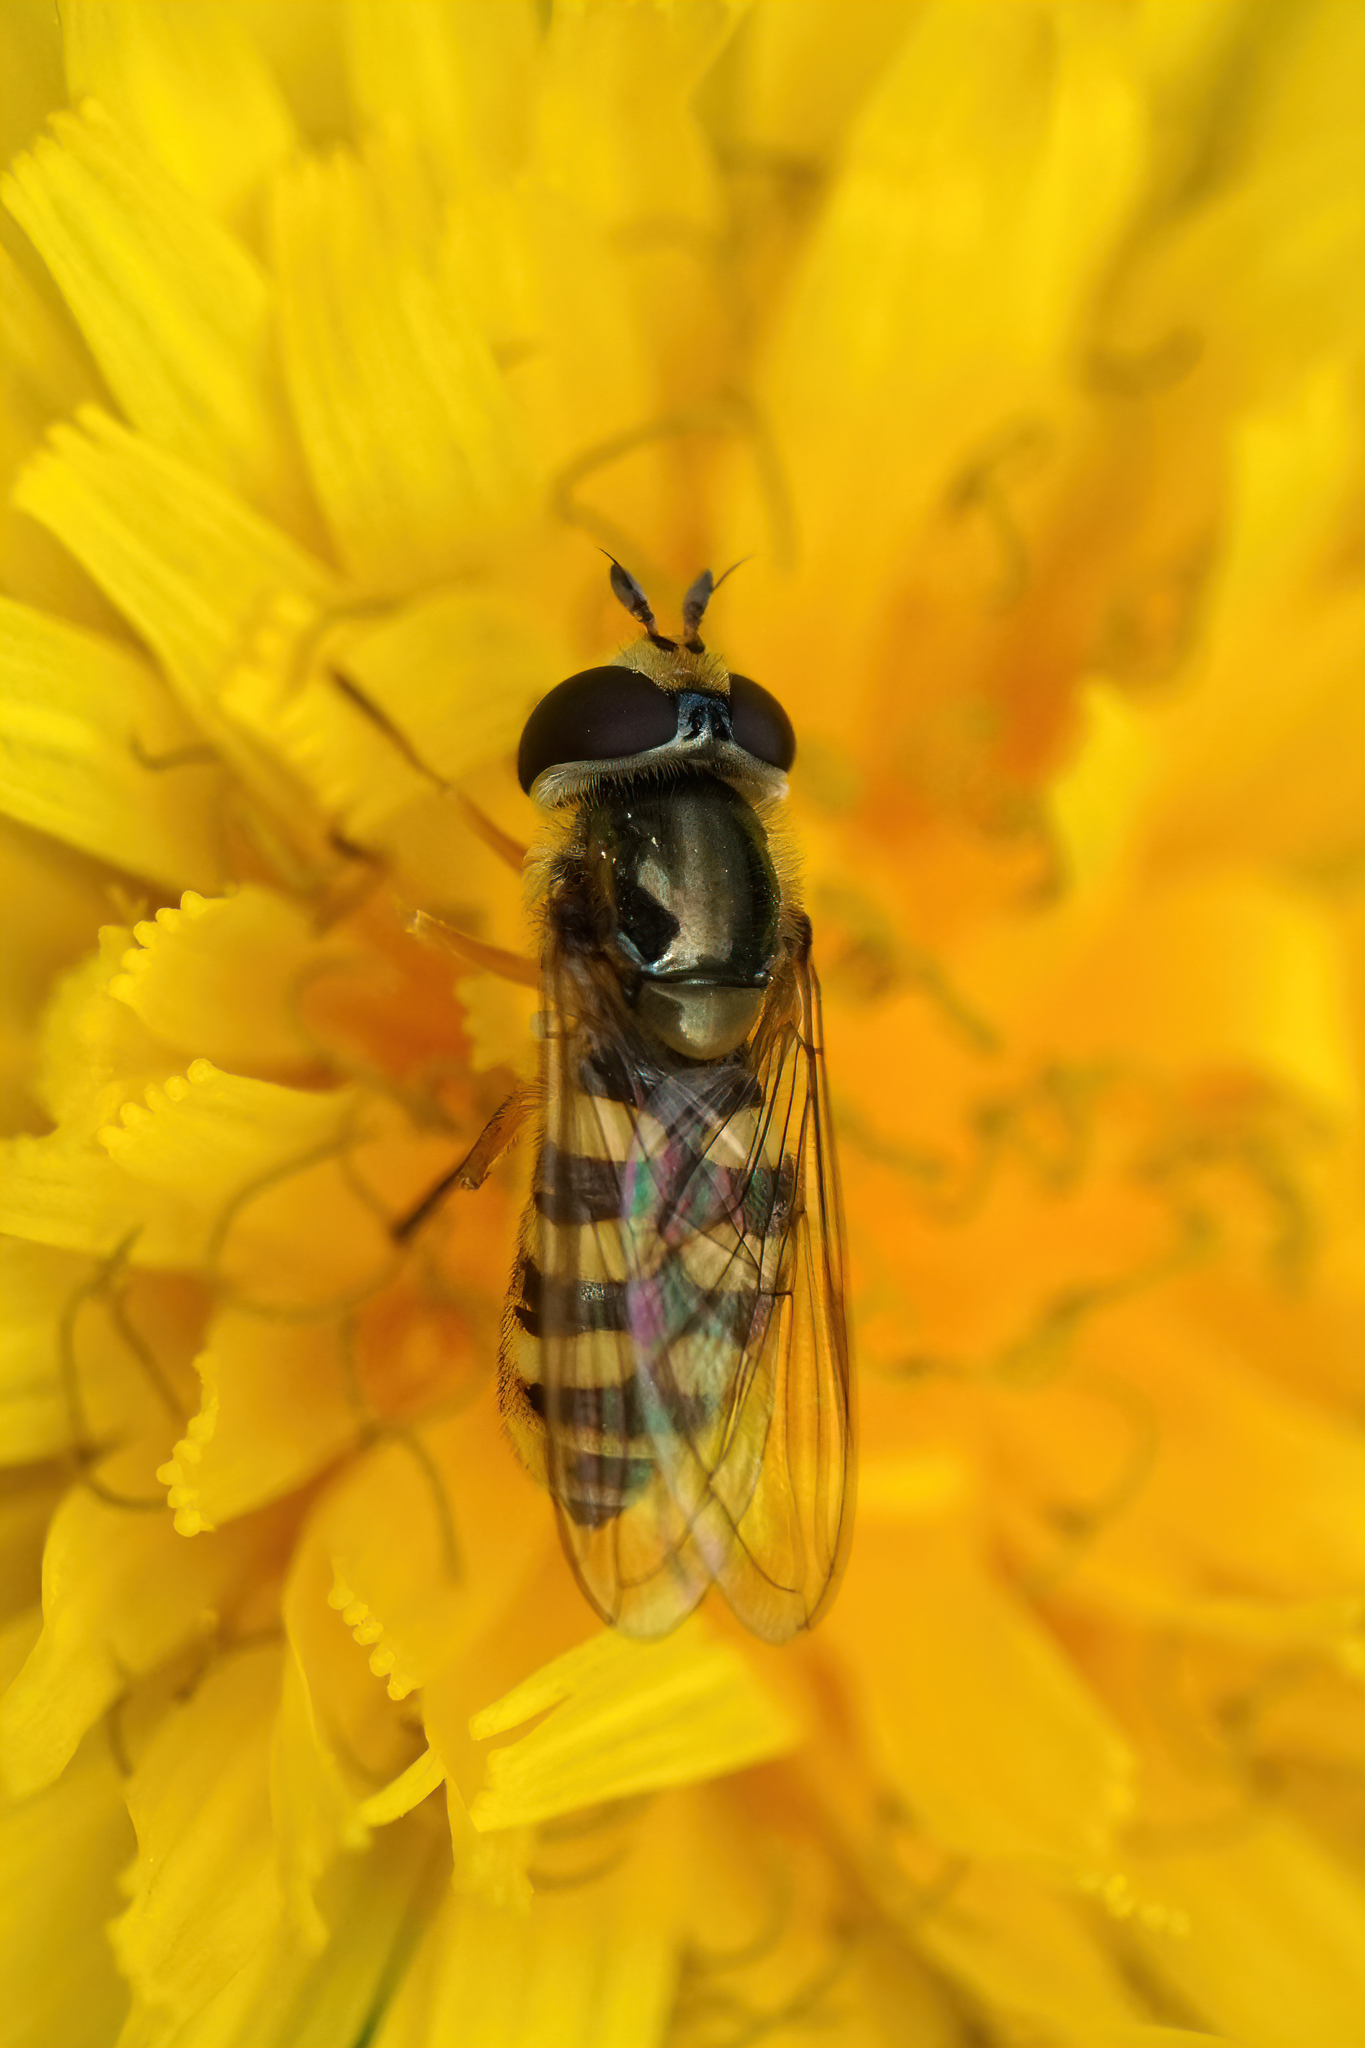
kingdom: Animalia
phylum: Arthropoda
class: Insecta
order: Diptera
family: Syrphidae
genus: Eupeodes
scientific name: Eupeodes corollae
